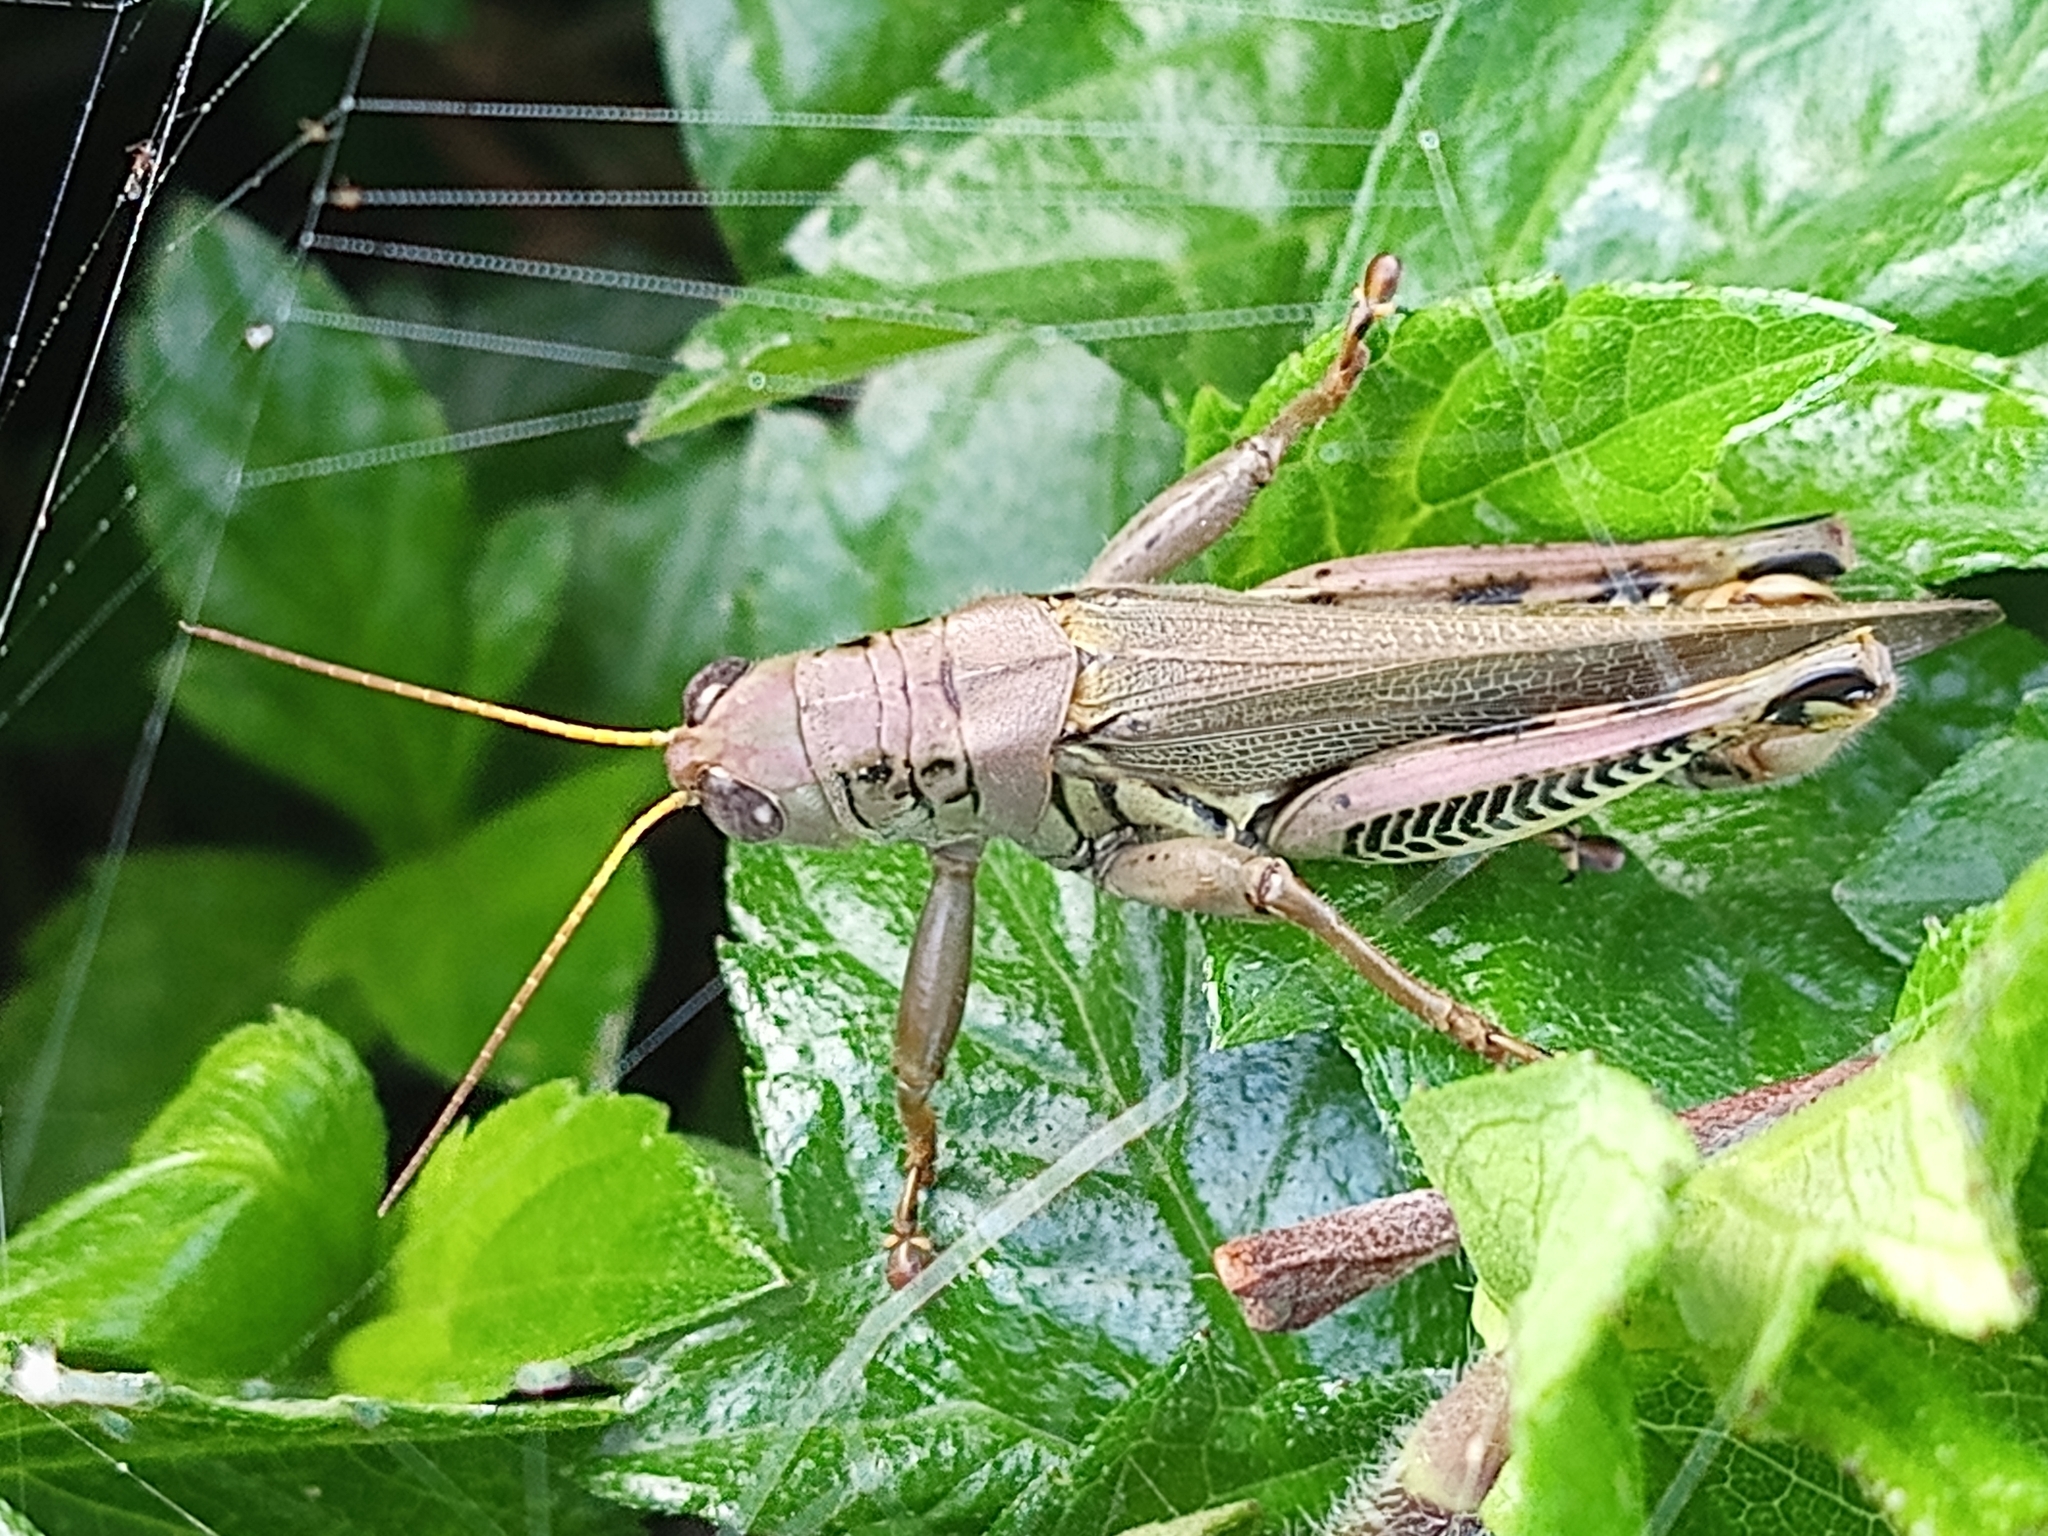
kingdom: Animalia
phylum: Arthropoda
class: Insecta
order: Orthoptera
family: Acrididae
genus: Melanoplus
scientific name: Melanoplus differentialis
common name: Differential grasshopper
